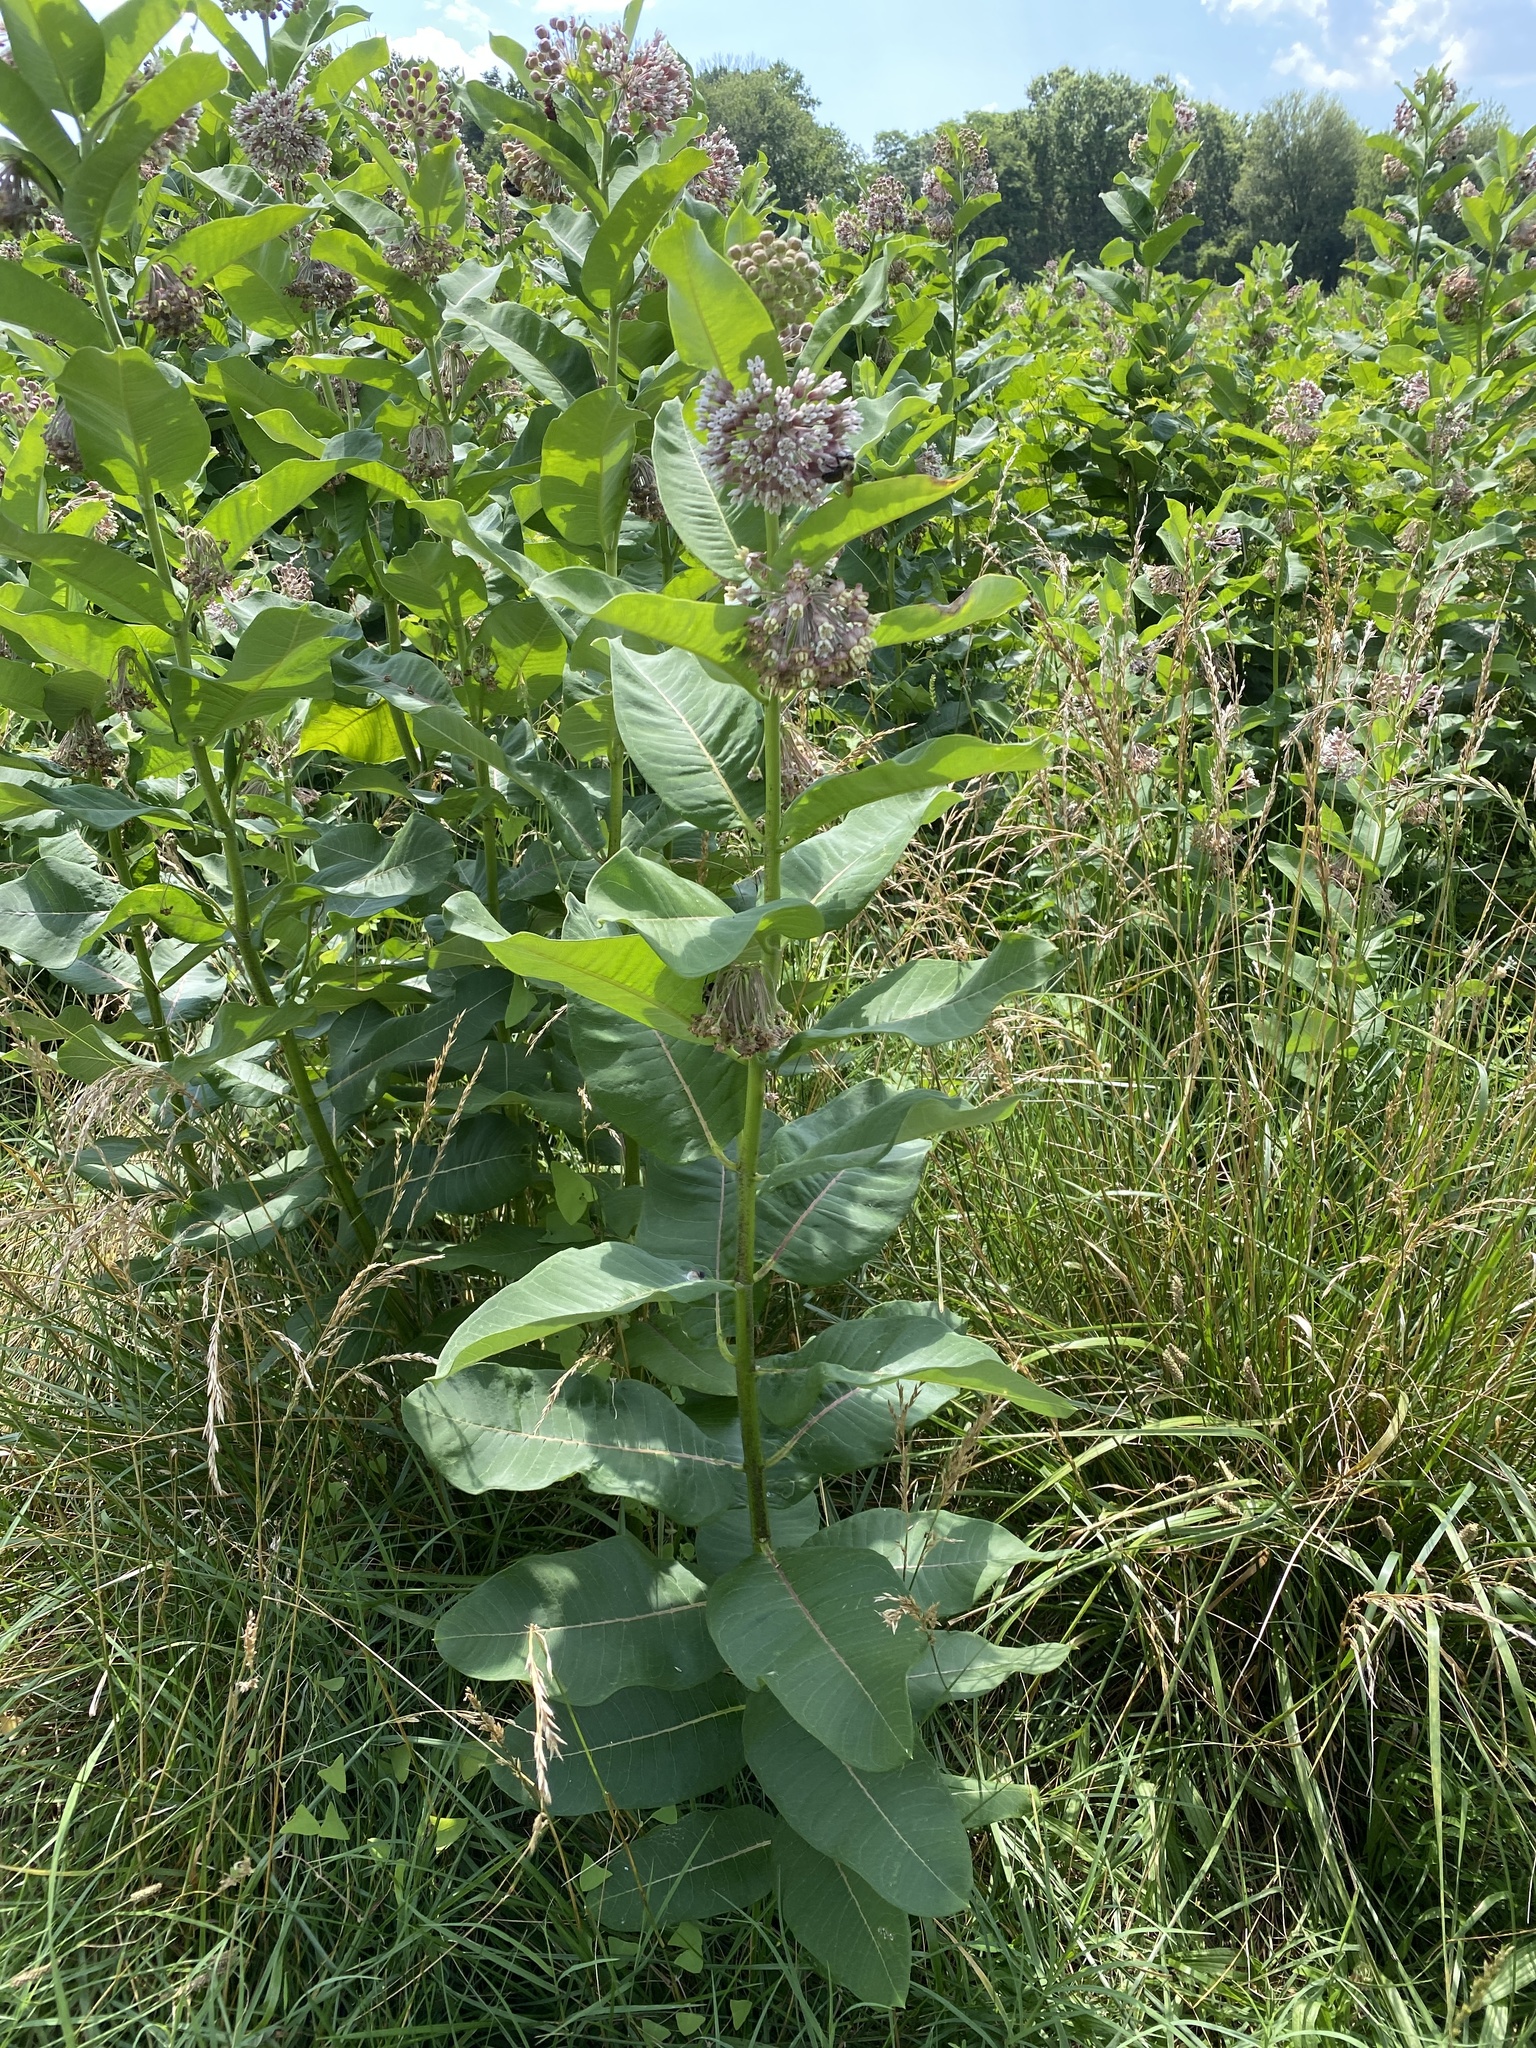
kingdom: Plantae
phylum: Tracheophyta
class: Magnoliopsida
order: Gentianales
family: Apocynaceae
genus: Asclepias
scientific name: Asclepias syriaca
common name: Common milkweed
